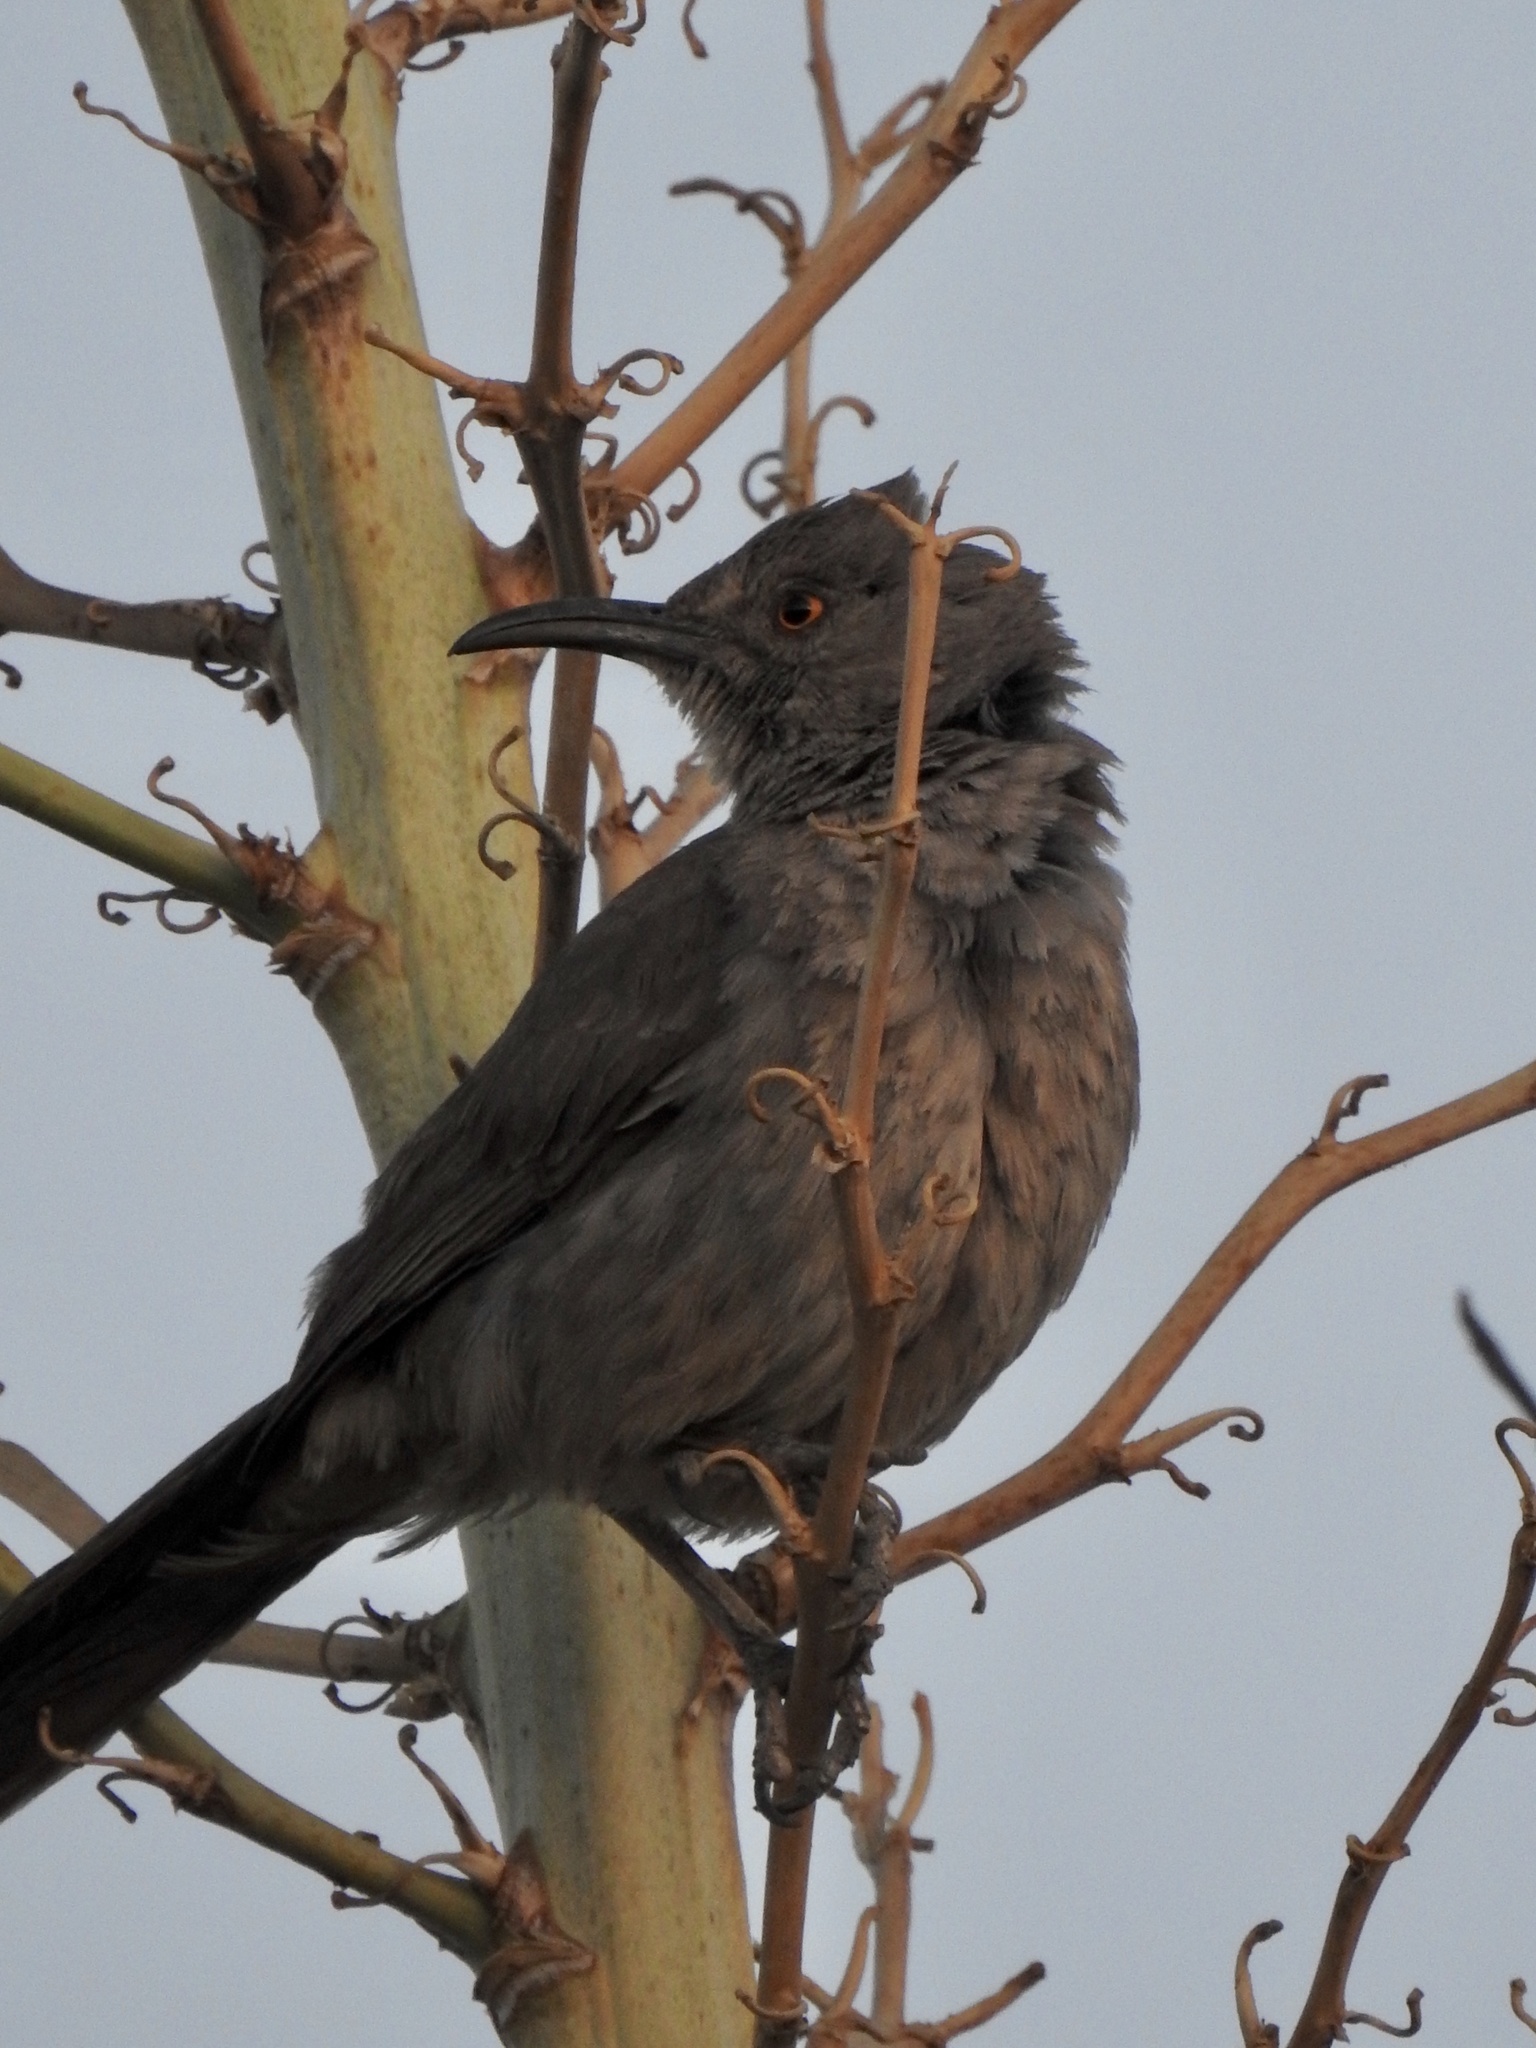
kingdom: Animalia
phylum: Chordata
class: Aves
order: Passeriformes
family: Mimidae
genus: Toxostoma
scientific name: Toxostoma curvirostre
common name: Curve-billed thrasher
